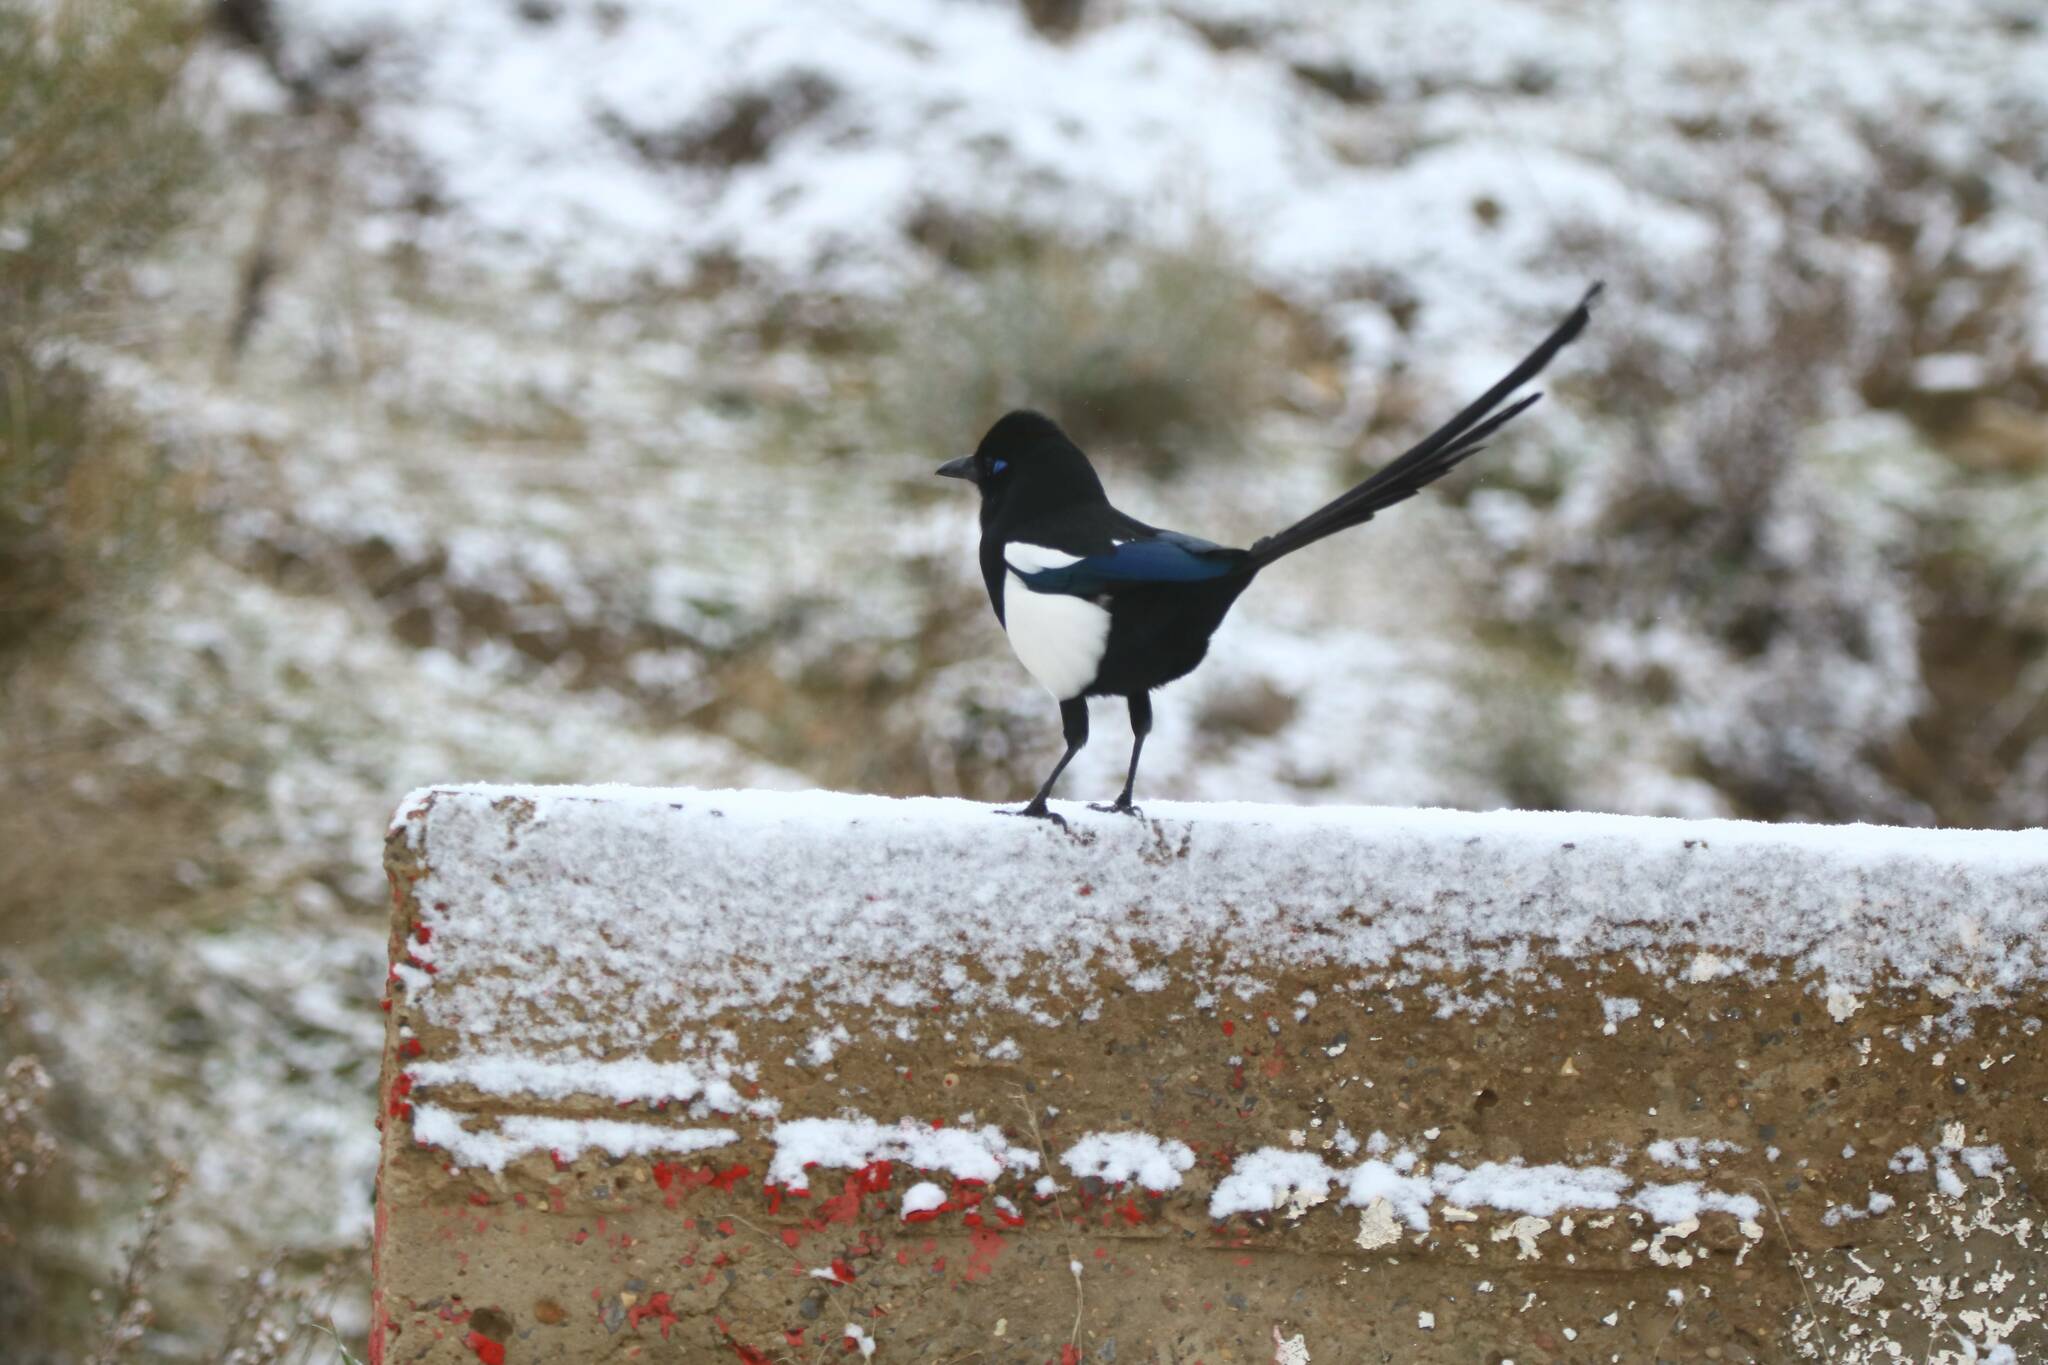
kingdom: Animalia
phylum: Chordata
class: Aves
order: Passeriformes
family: Corvidae
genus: Pica
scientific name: Pica mauritanica
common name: Maghreb magpie
